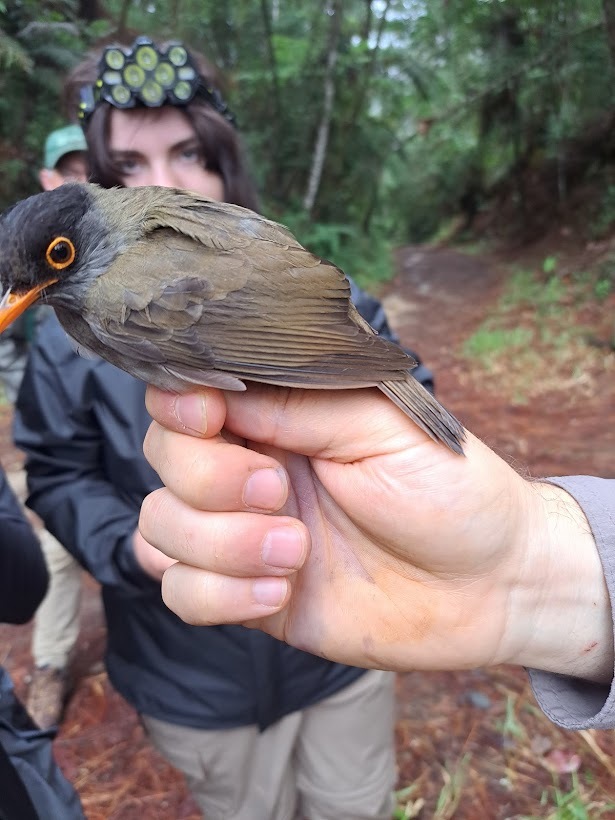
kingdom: Animalia
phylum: Chordata
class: Aves
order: Passeriformes
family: Turdidae
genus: Catharus
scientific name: Catharus mexicanus
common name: Black-headed nightingale-thrush
